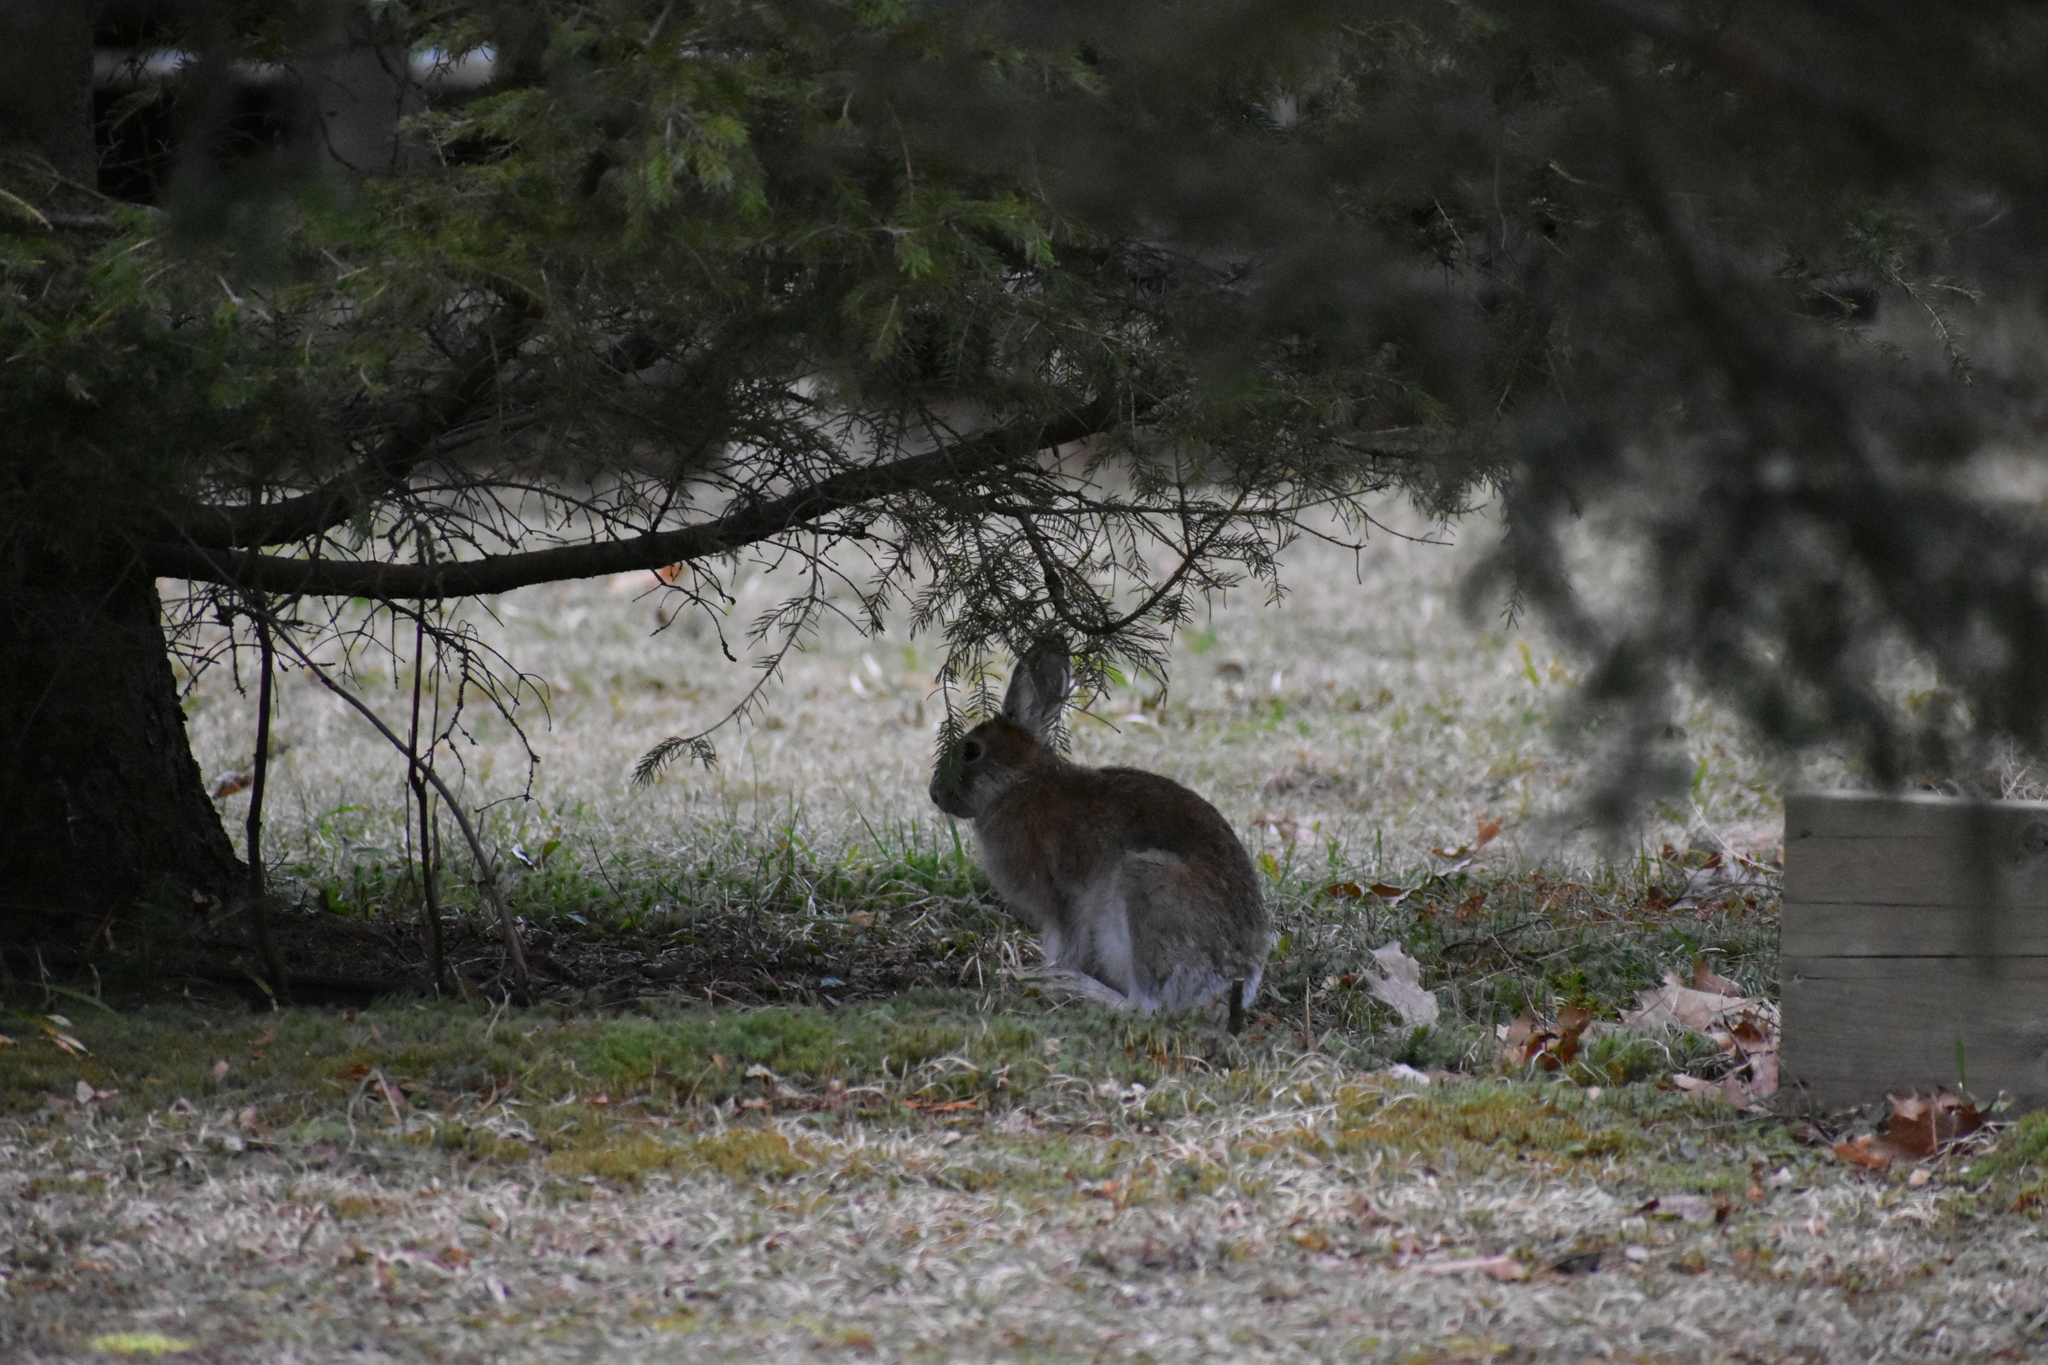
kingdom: Animalia
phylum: Chordata
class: Mammalia
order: Lagomorpha
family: Leporidae
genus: Lepus
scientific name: Lepus americanus
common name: Snowshoe hare
